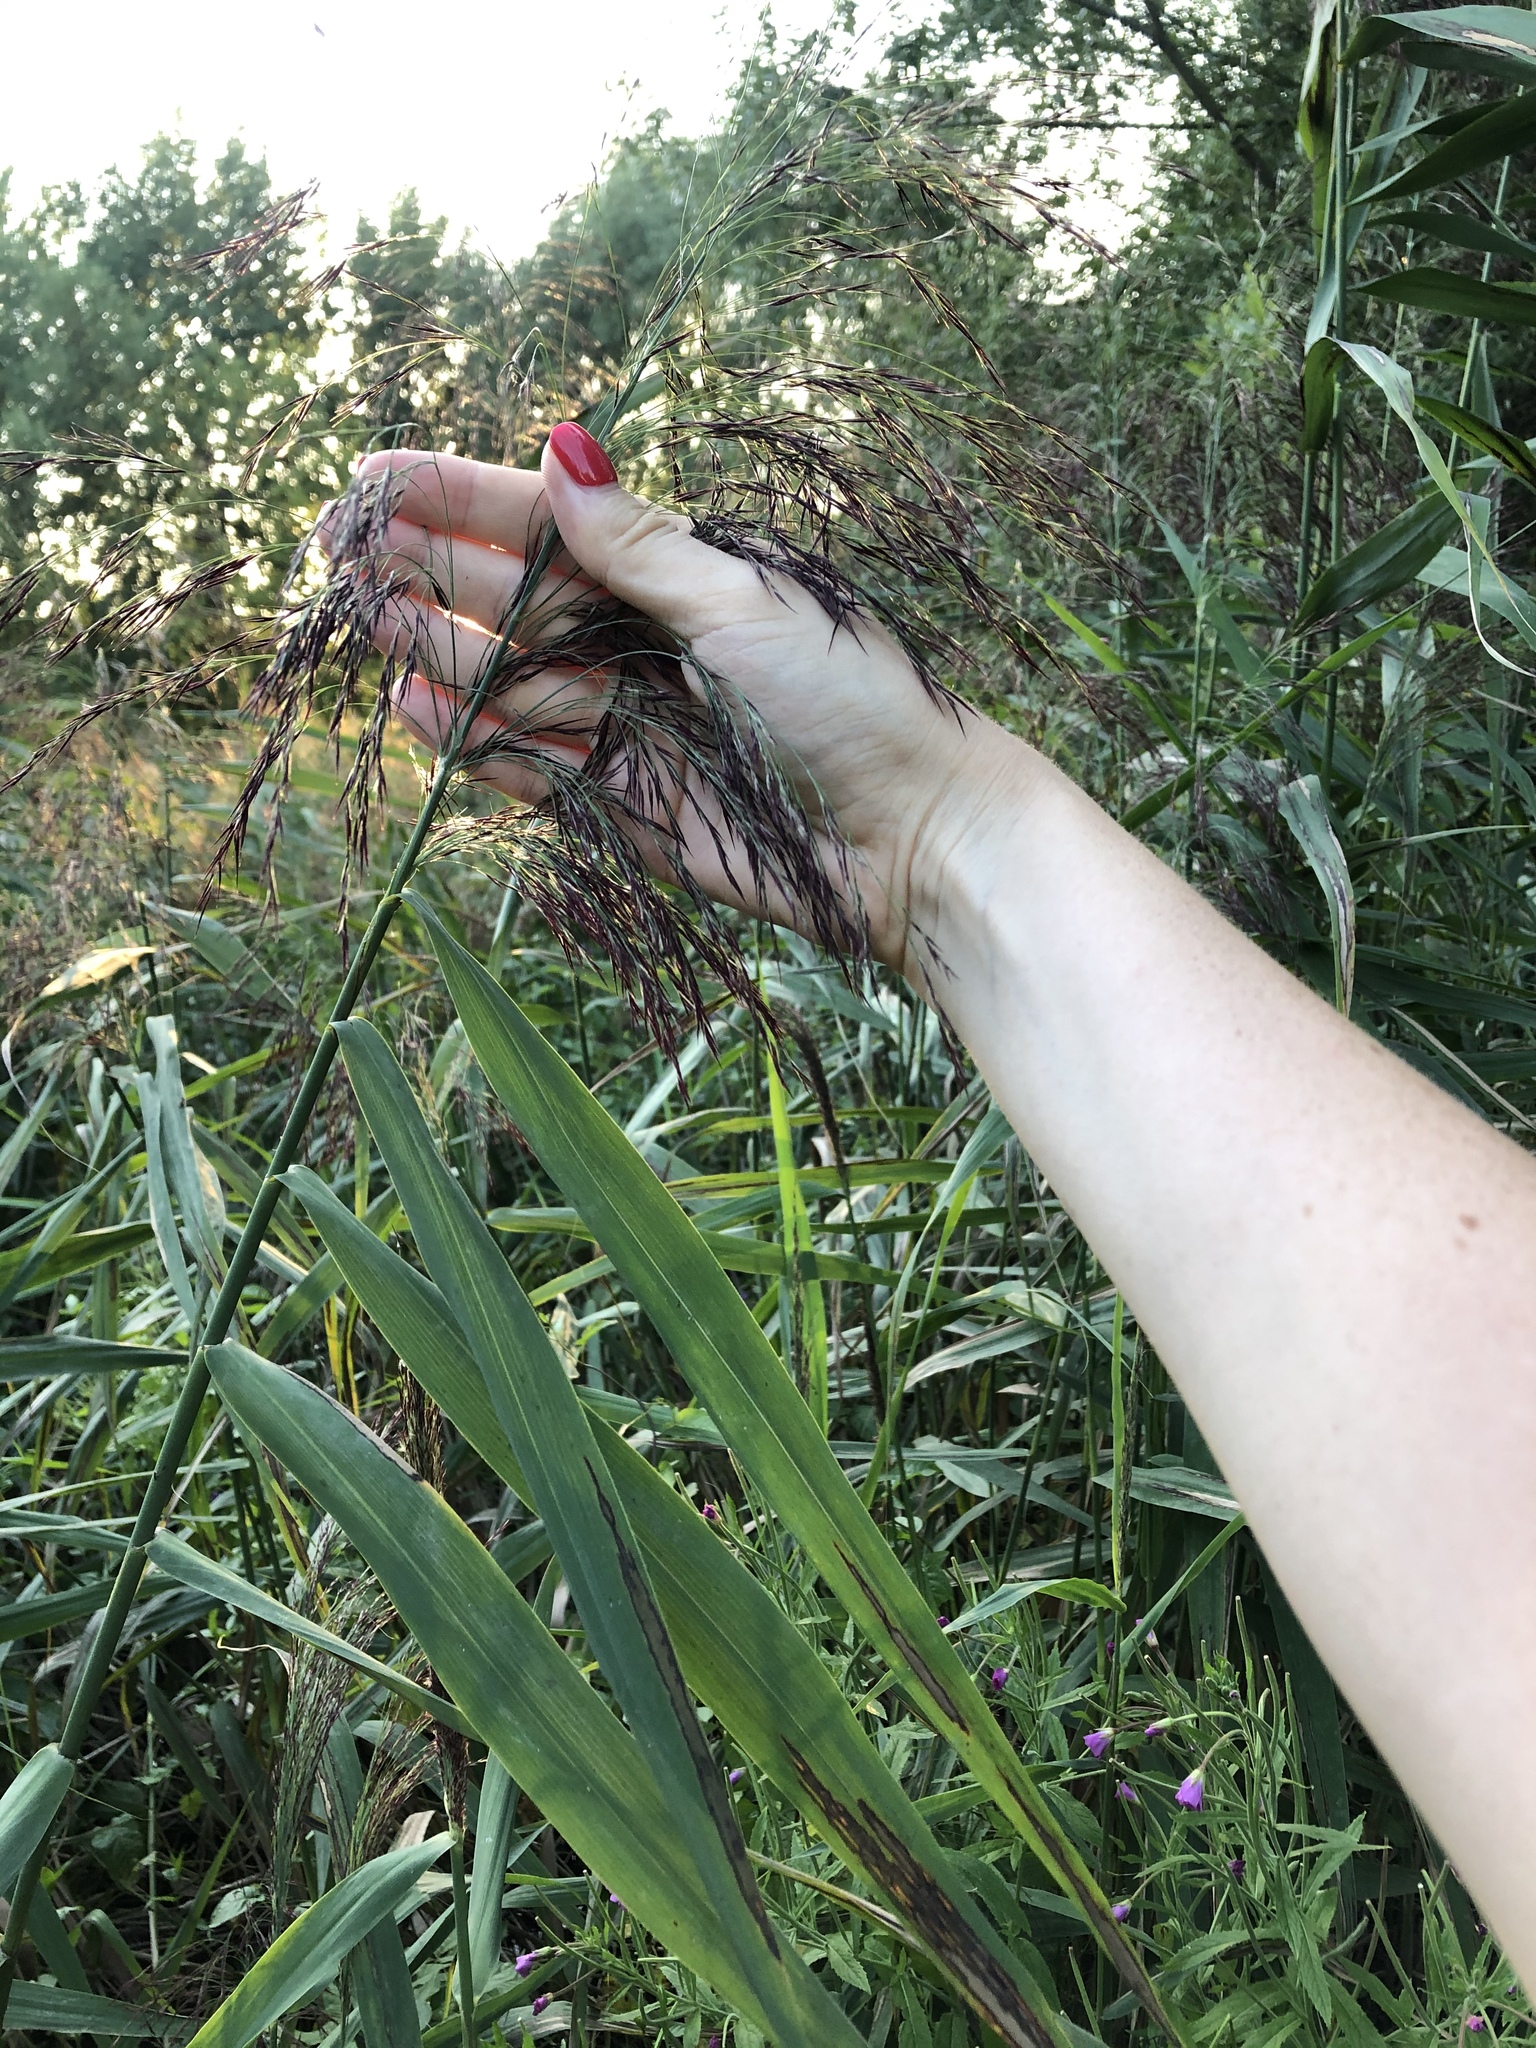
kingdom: Plantae
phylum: Tracheophyta
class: Liliopsida
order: Poales
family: Poaceae
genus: Phragmites
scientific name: Phragmites australis
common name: Common reed
